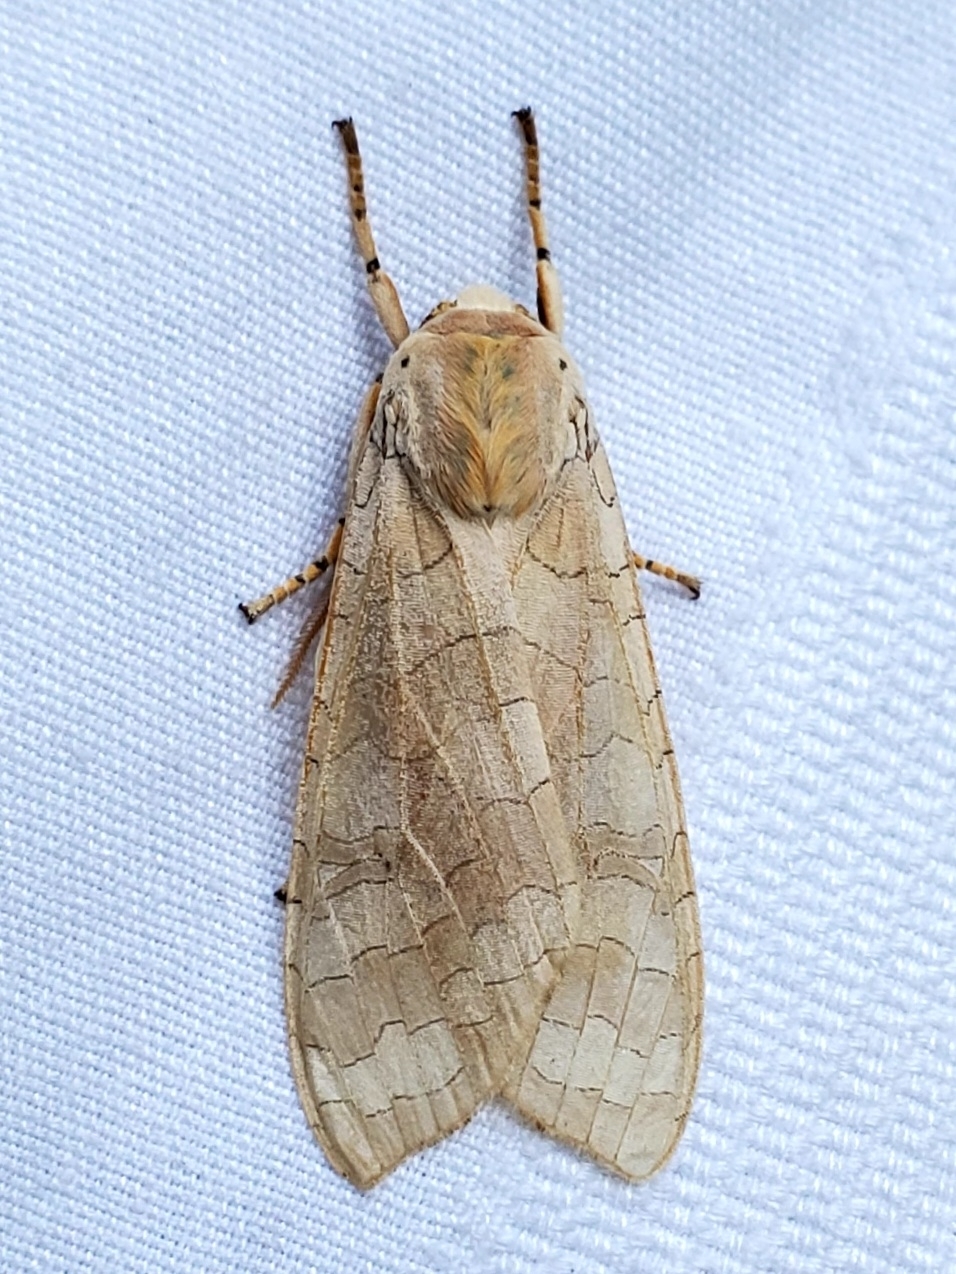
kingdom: Animalia
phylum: Arthropoda
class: Insecta
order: Lepidoptera
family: Erebidae
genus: Halysidota
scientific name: Halysidota
